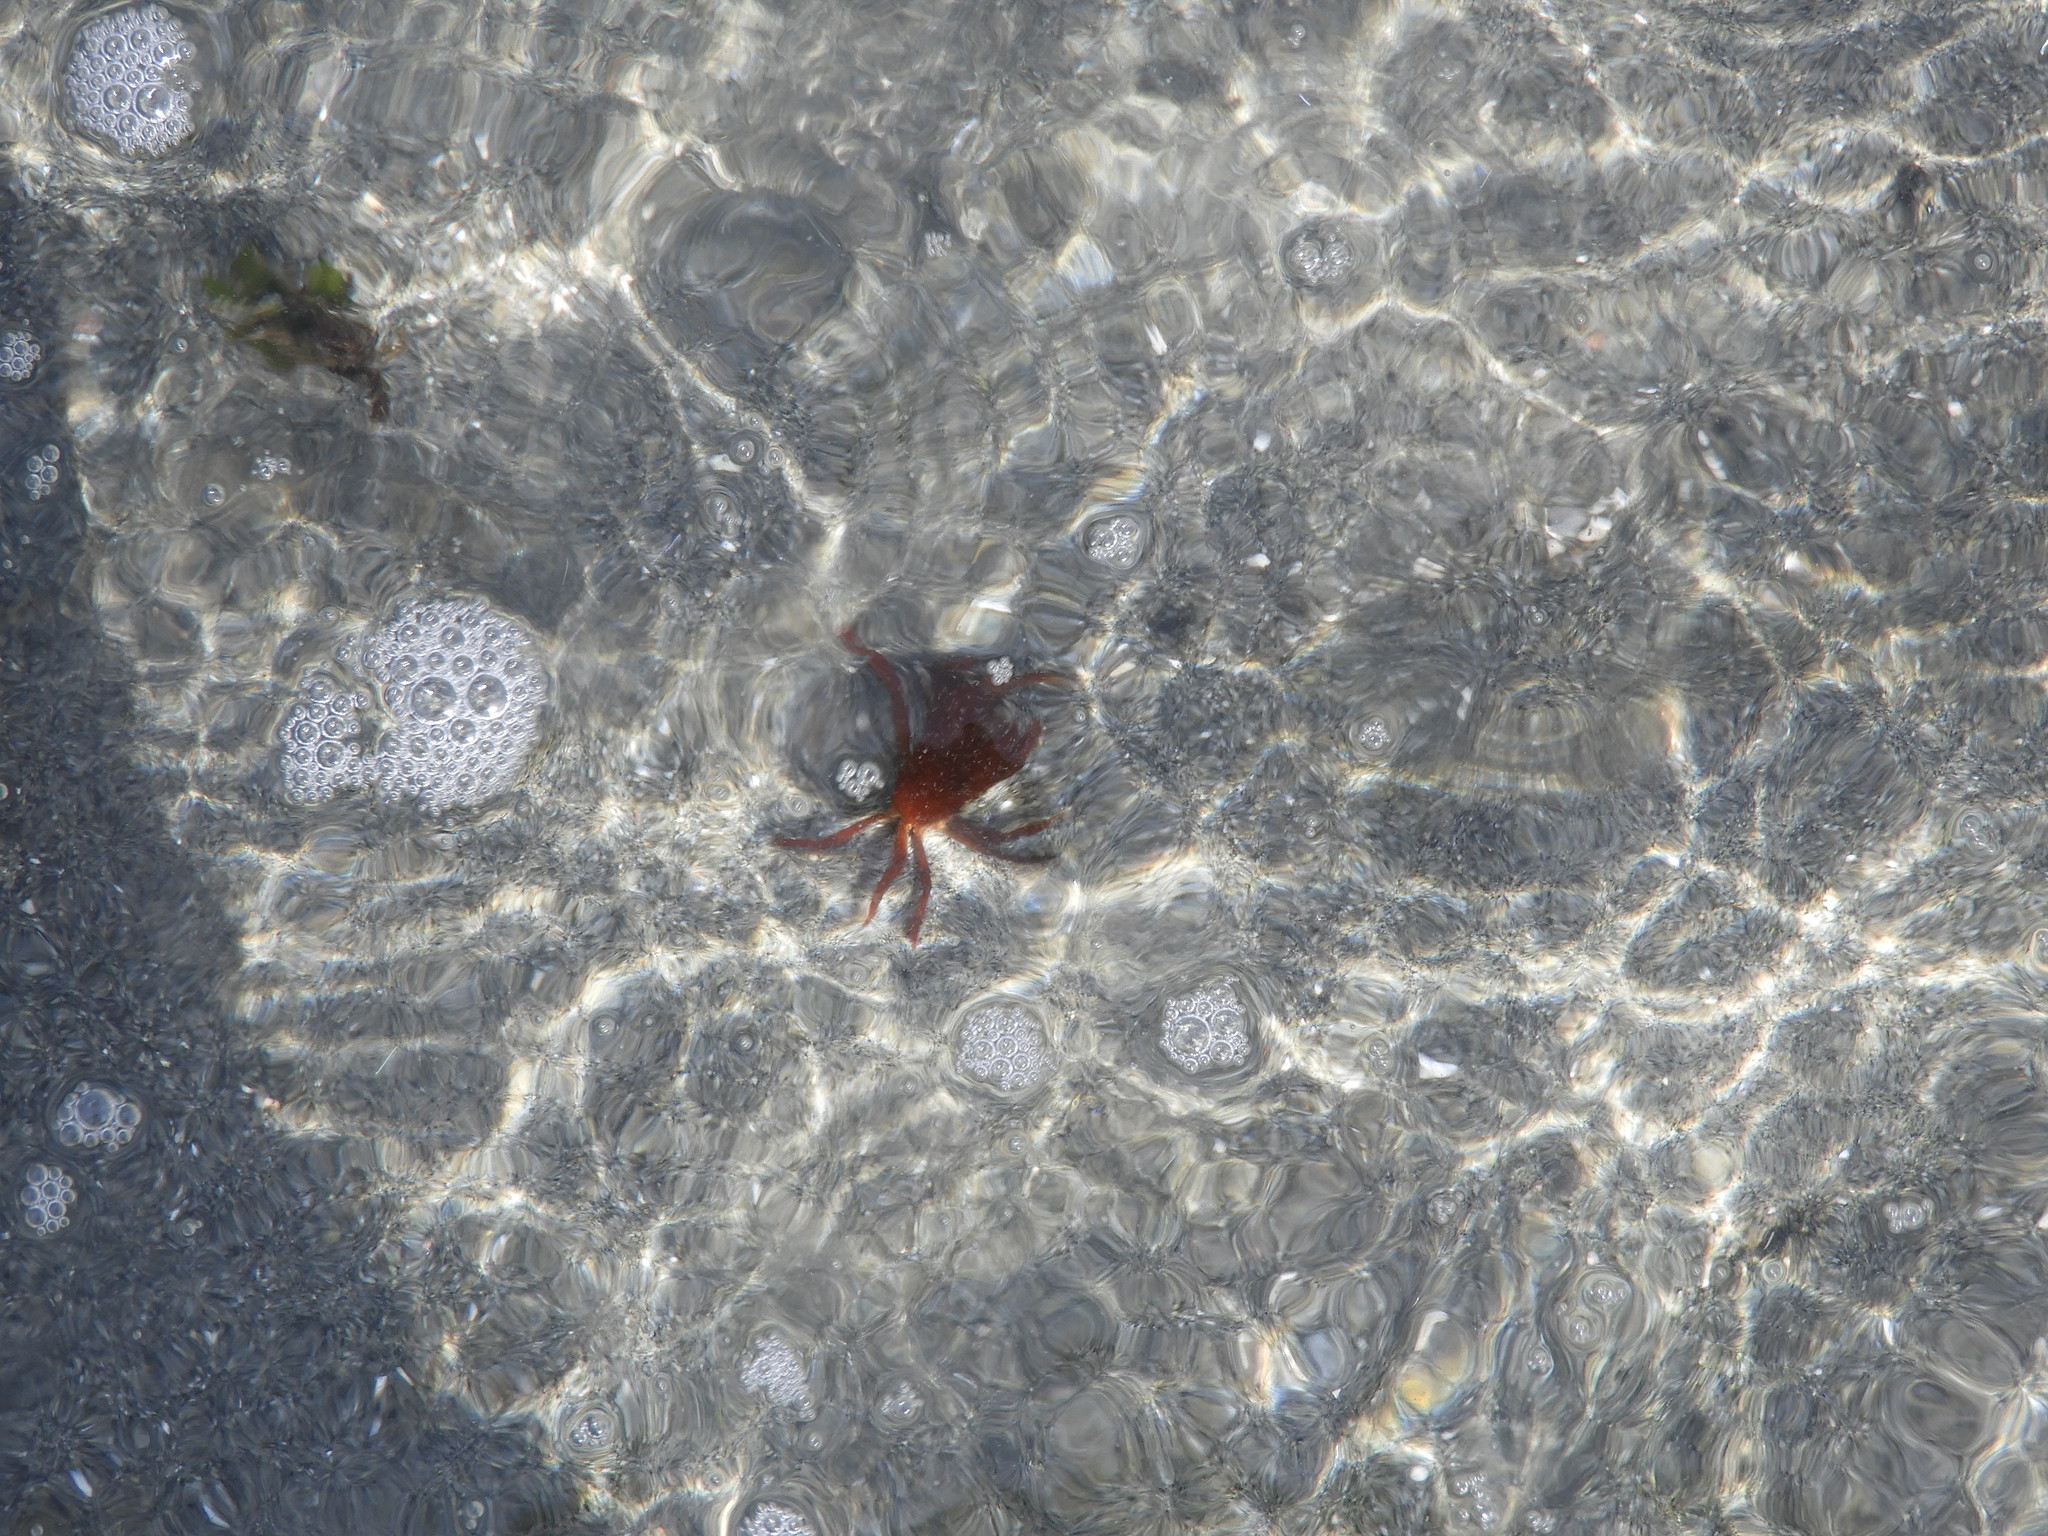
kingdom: Animalia
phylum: Arthropoda
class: Malacostraca
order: Decapoda
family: Epialtidae
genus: Pugettia
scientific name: Pugettia producta
